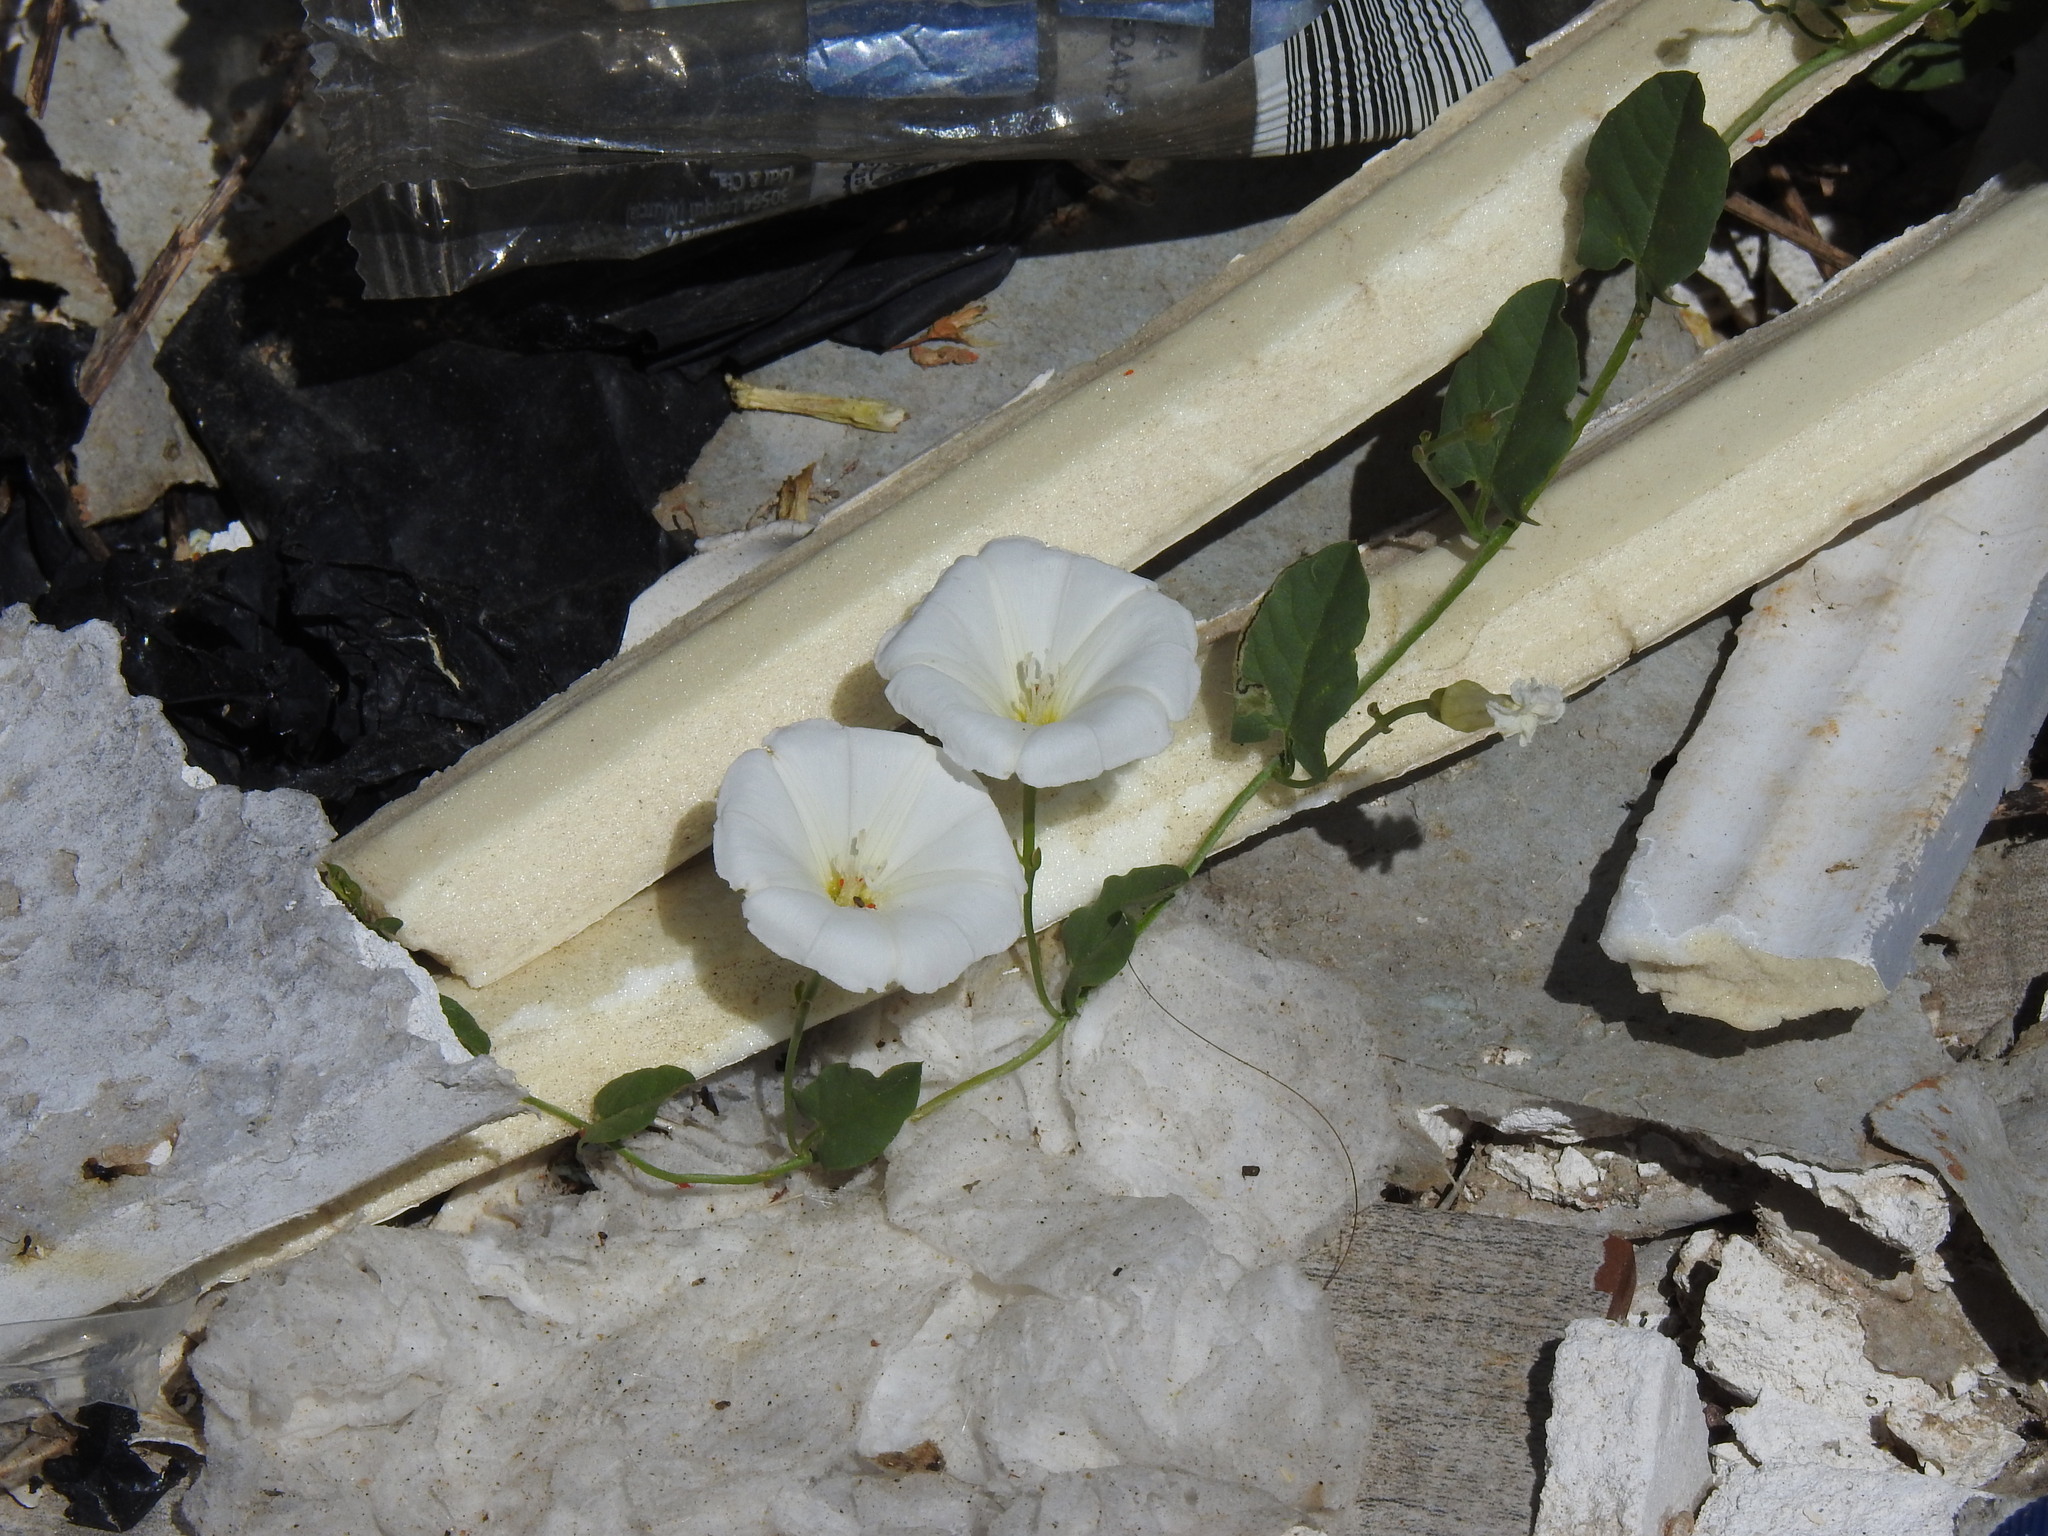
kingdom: Plantae
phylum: Tracheophyta
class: Magnoliopsida
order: Solanales
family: Convolvulaceae
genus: Convolvulus
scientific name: Convolvulus arvensis
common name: Field bindweed
